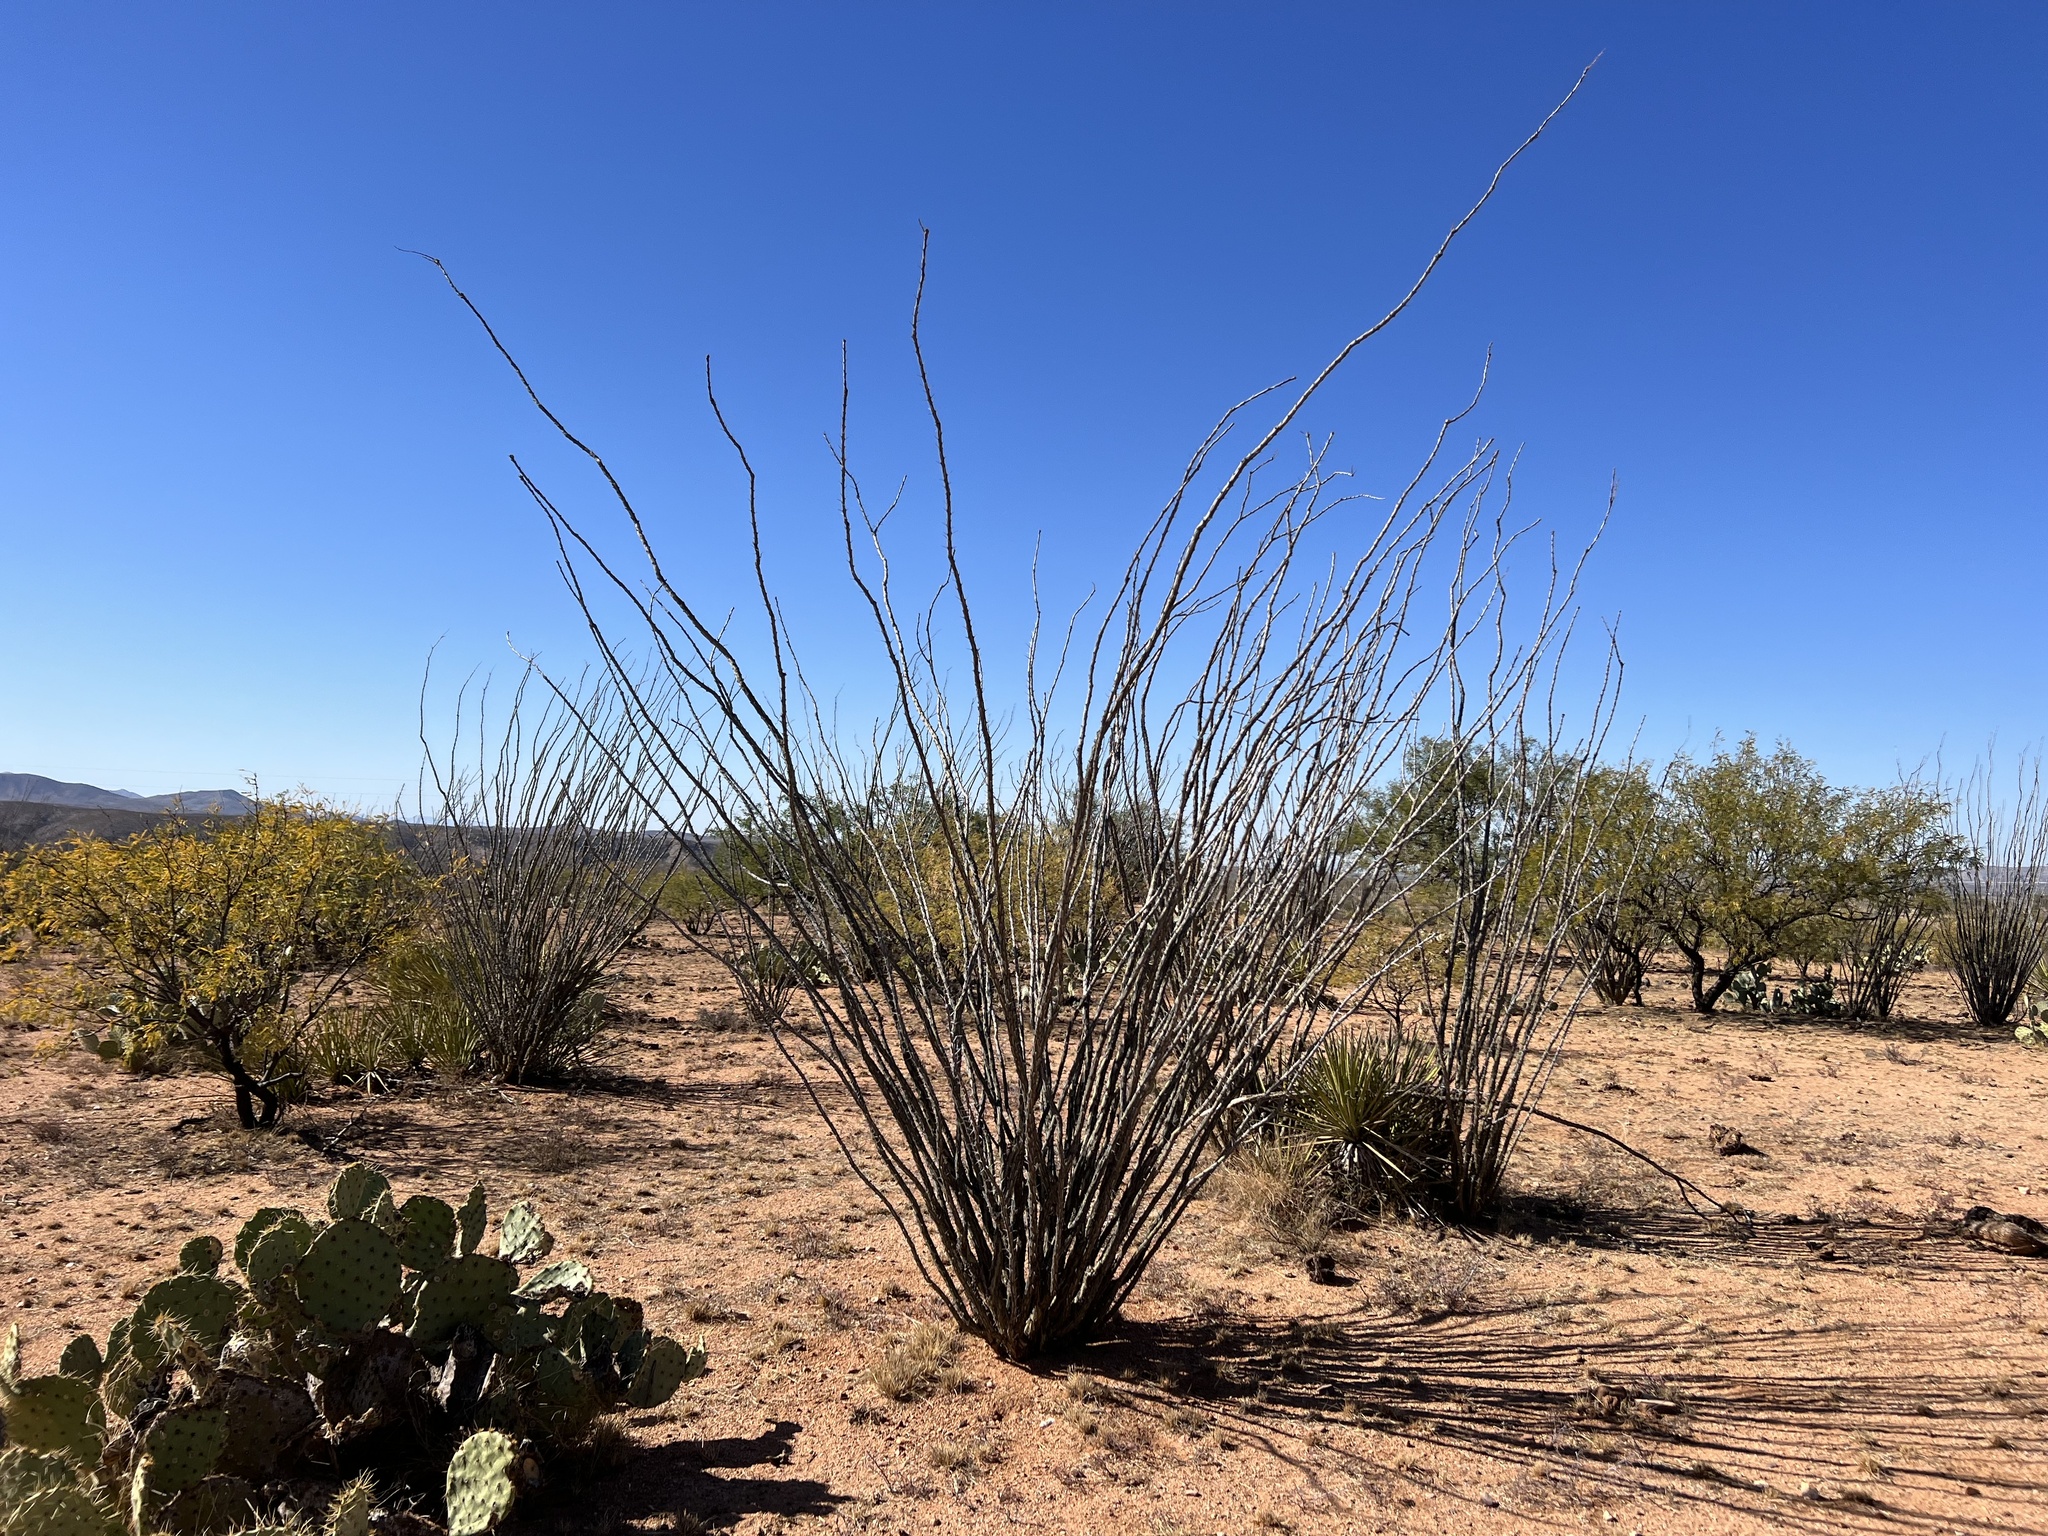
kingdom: Plantae
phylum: Tracheophyta
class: Magnoliopsida
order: Ericales
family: Fouquieriaceae
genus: Fouquieria
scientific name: Fouquieria splendens
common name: Vine-cactus
